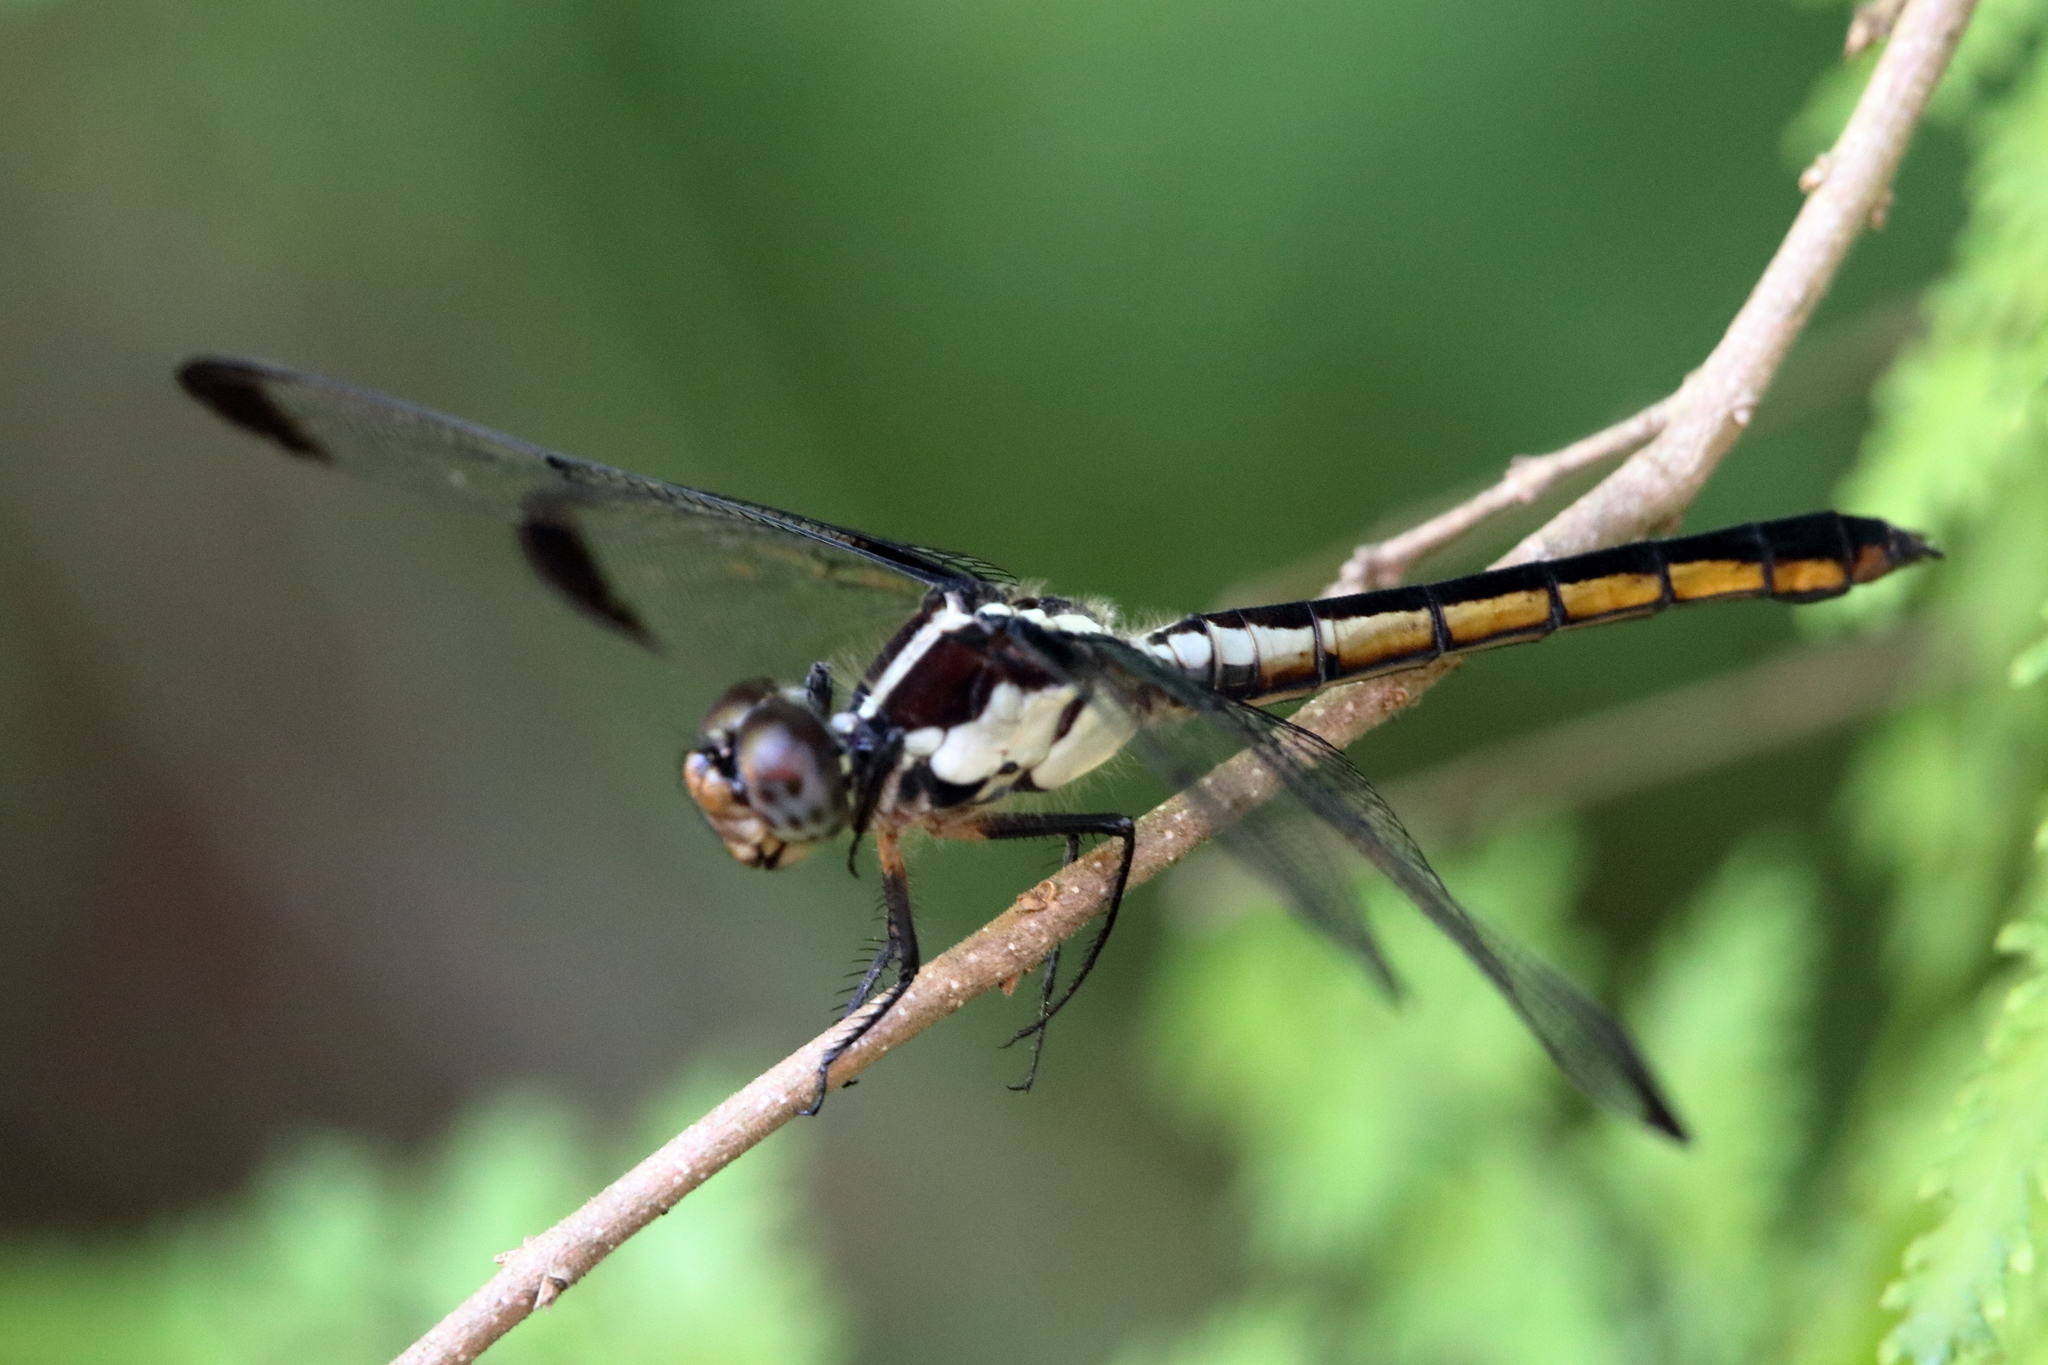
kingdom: Animalia
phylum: Arthropoda
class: Insecta
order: Odonata
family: Libellulidae
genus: Libellula
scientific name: Libellula incesta
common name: Slaty skimmer
